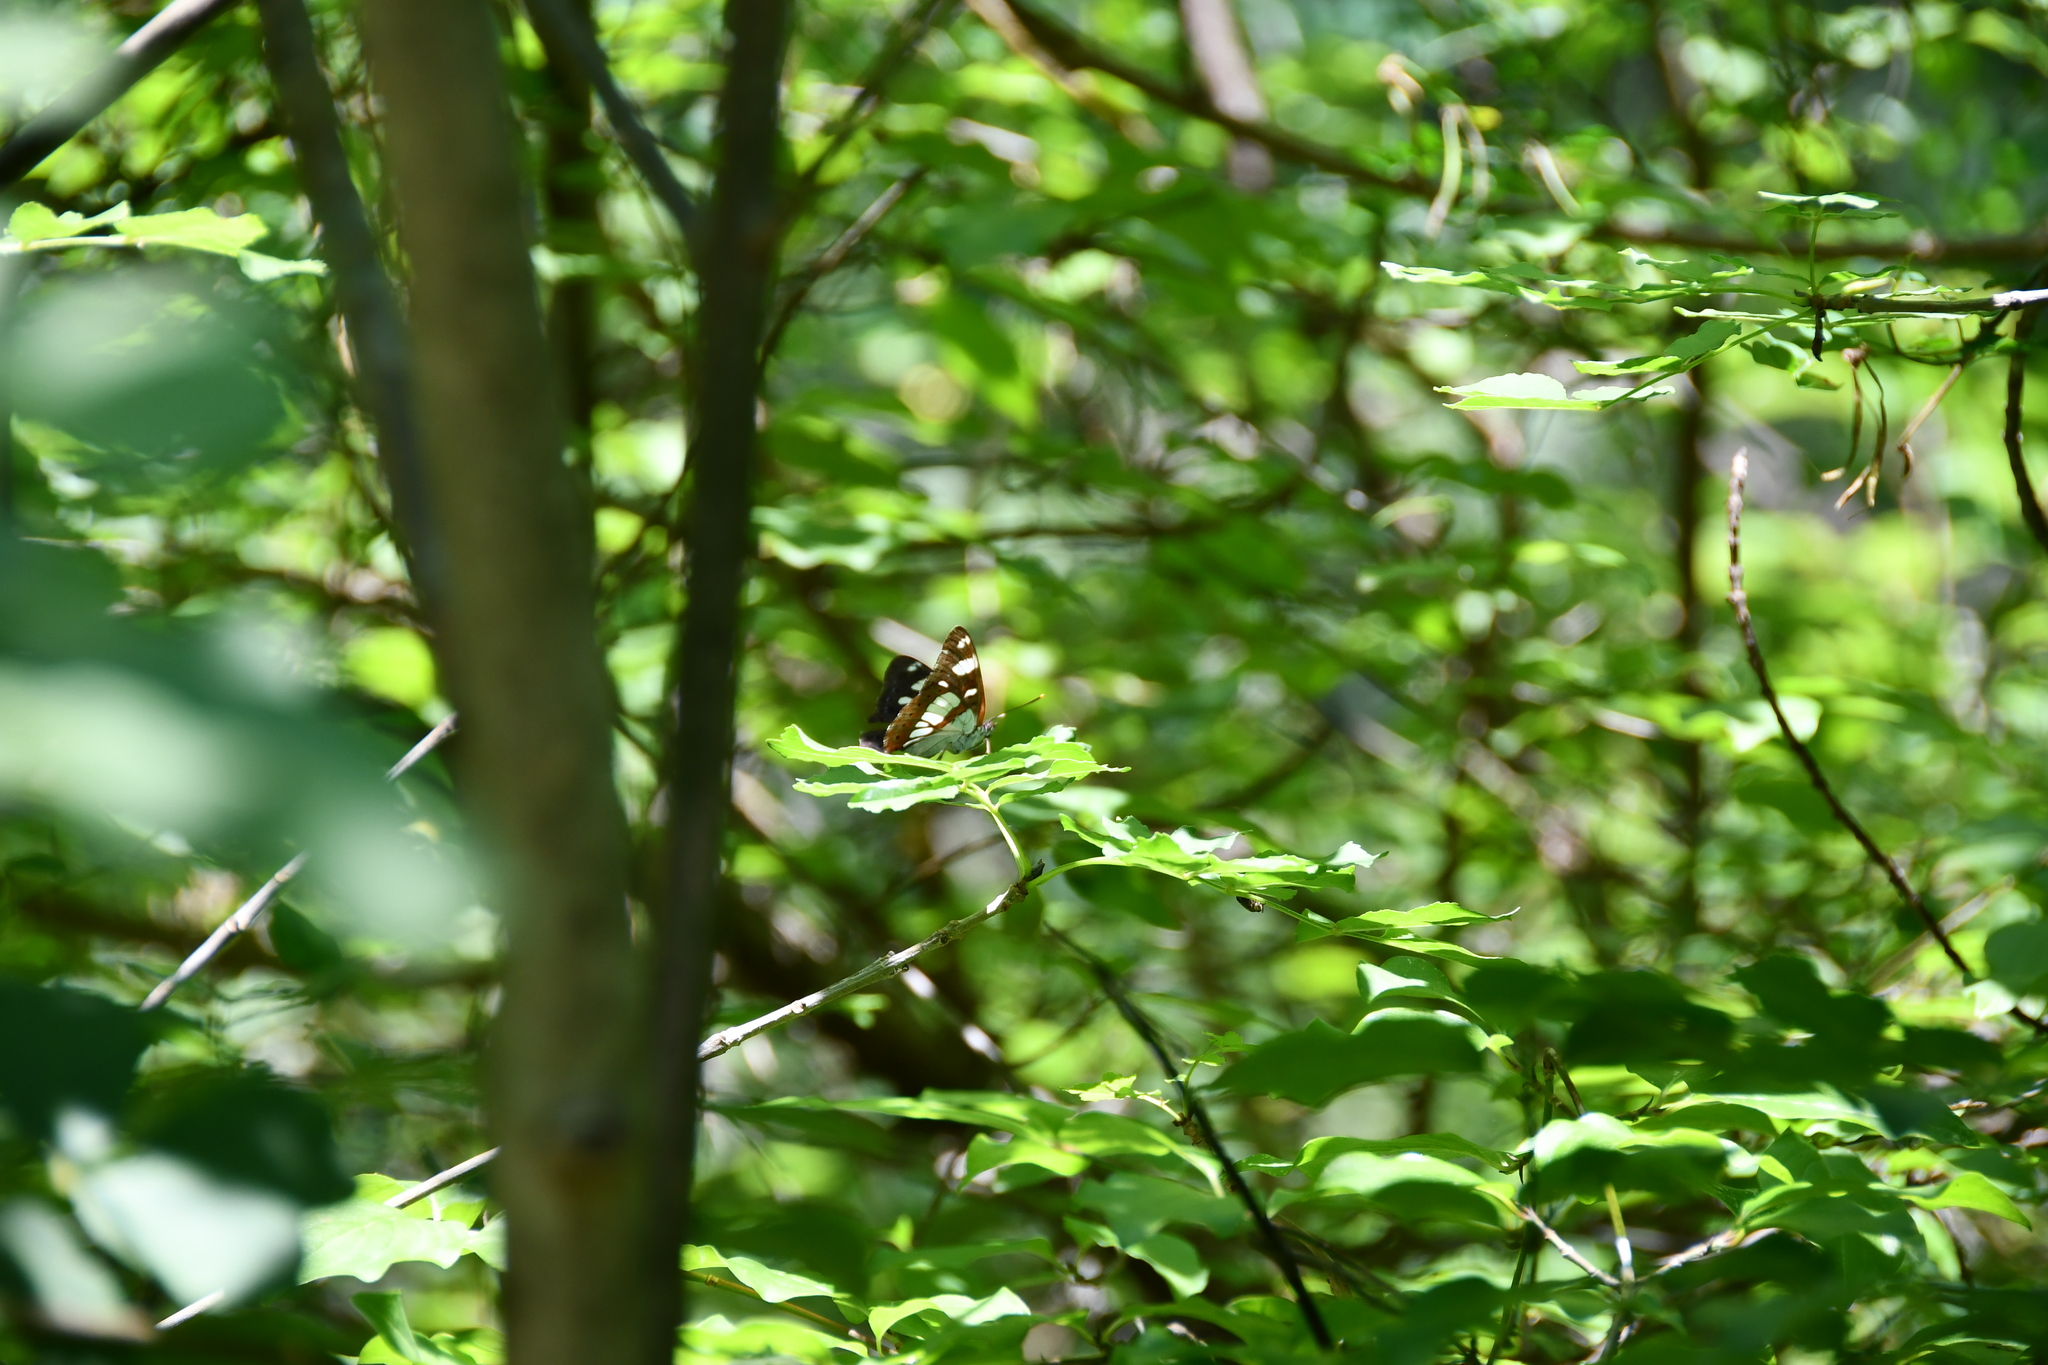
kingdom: Animalia
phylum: Arthropoda
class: Insecta
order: Lepidoptera
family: Nymphalidae
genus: Limenitis
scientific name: Limenitis reducta
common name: Southern white admiral
